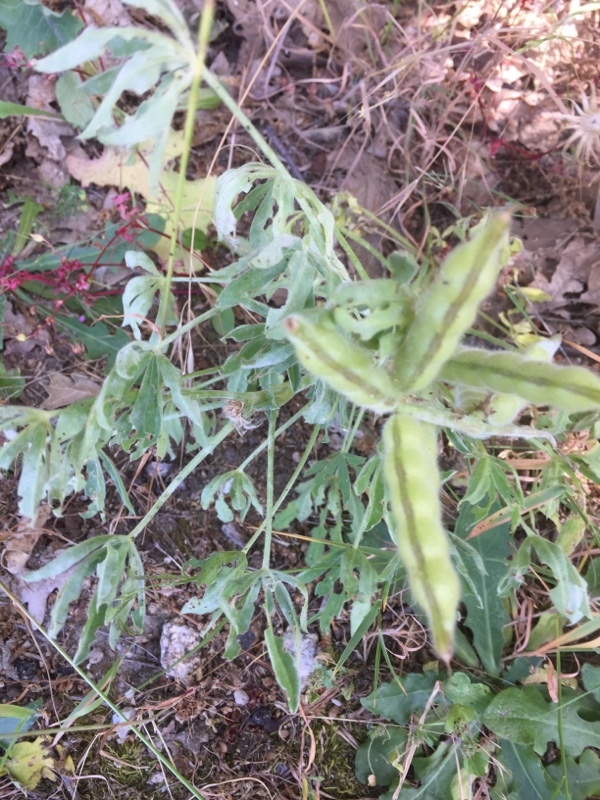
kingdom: Plantae
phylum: Tracheophyta
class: Magnoliopsida
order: Fabales
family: Fabaceae
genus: Lupinus
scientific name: Lupinus luteus
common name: European yellow lupine
